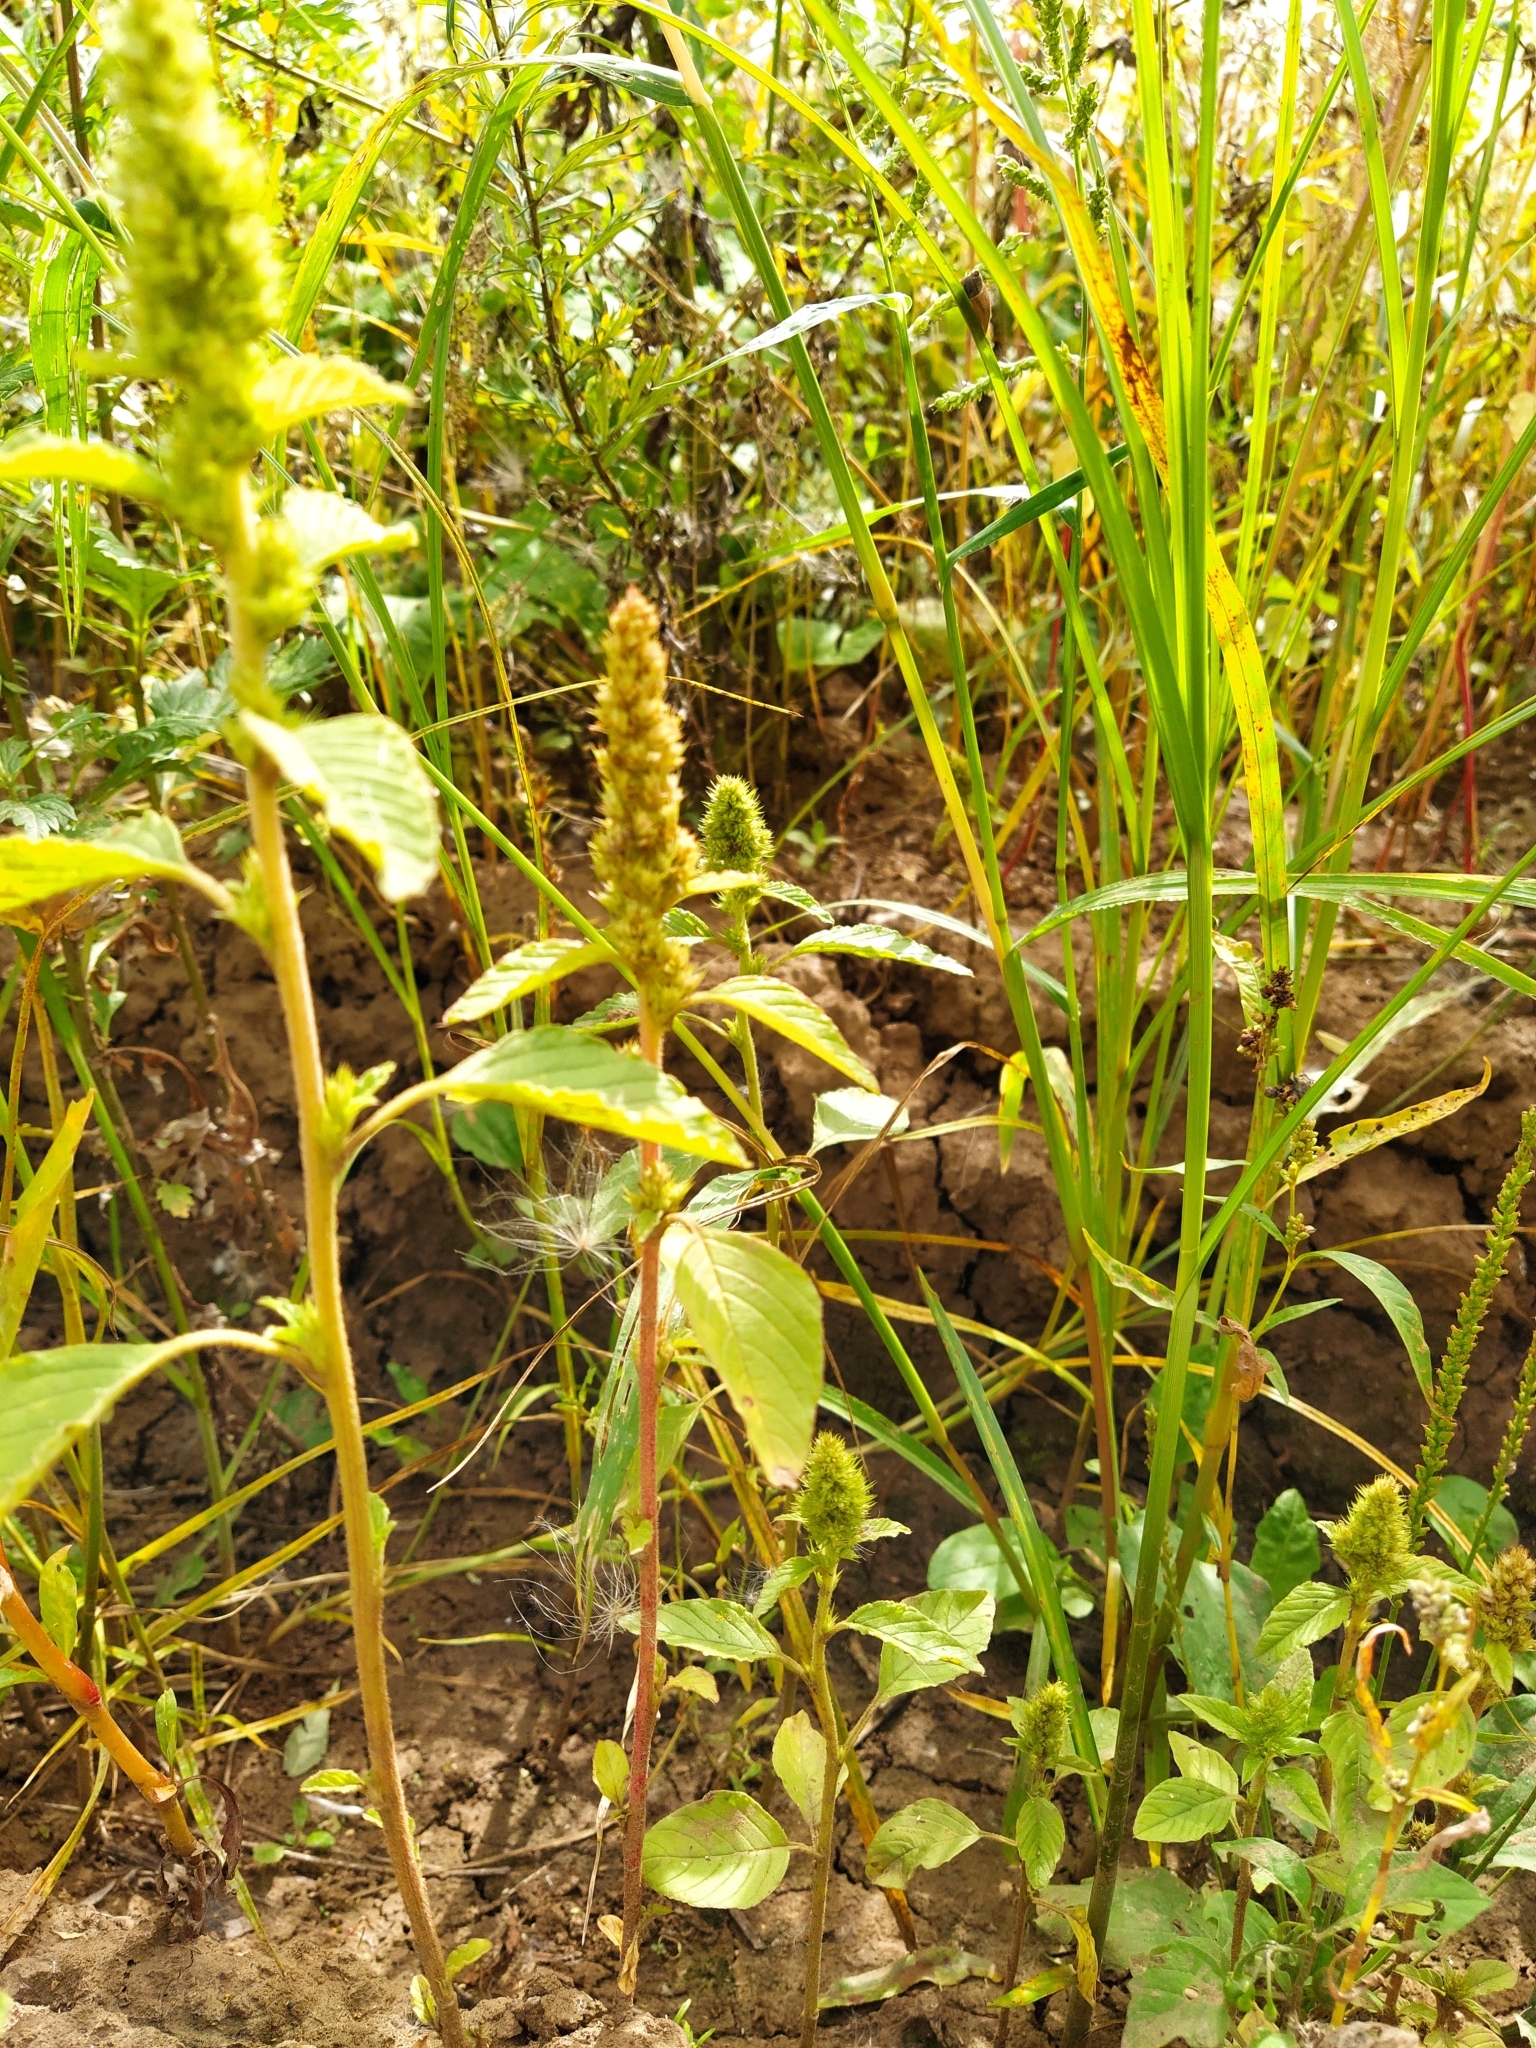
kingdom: Plantae
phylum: Tracheophyta
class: Magnoliopsida
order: Caryophyllales
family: Amaranthaceae
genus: Amaranthus
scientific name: Amaranthus retroflexus
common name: Redroot amaranth
